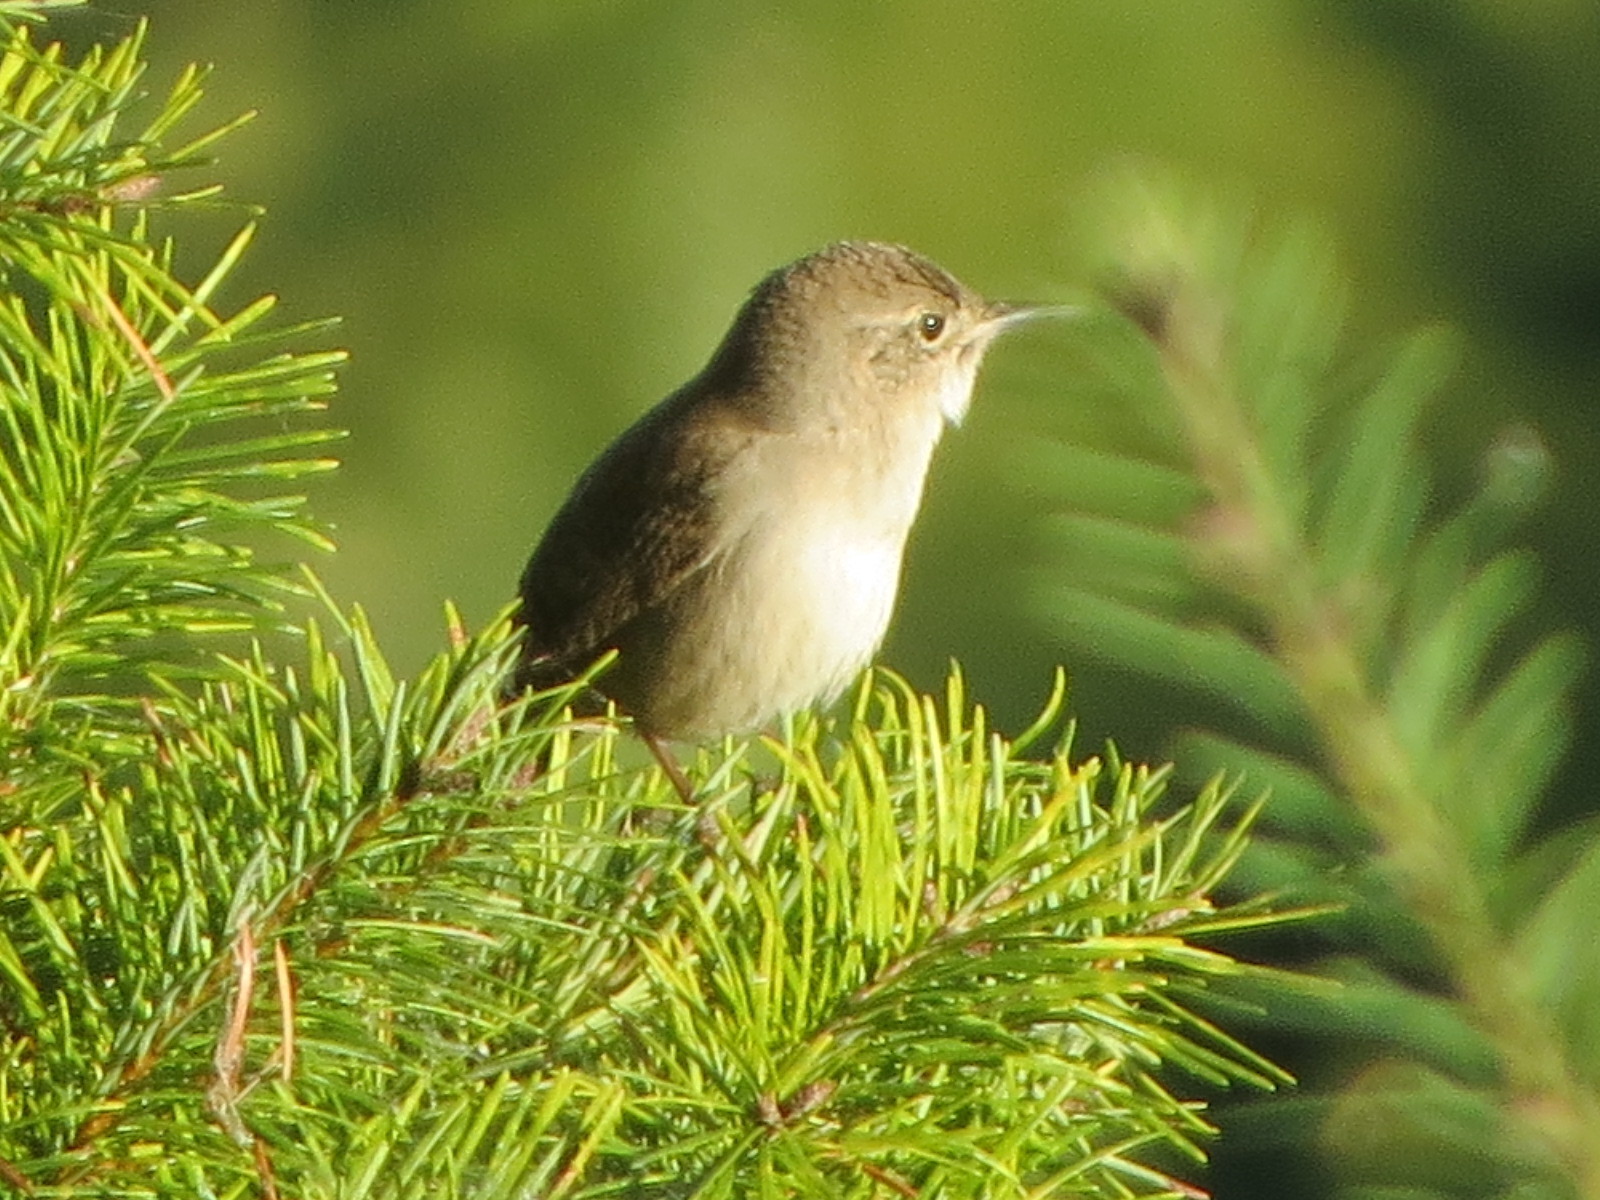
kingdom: Animalia
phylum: Chordata
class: Aves
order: Passeriformes
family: Troglodytidae
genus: Troglodytes
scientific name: Troglodytes aedon
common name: House wren
